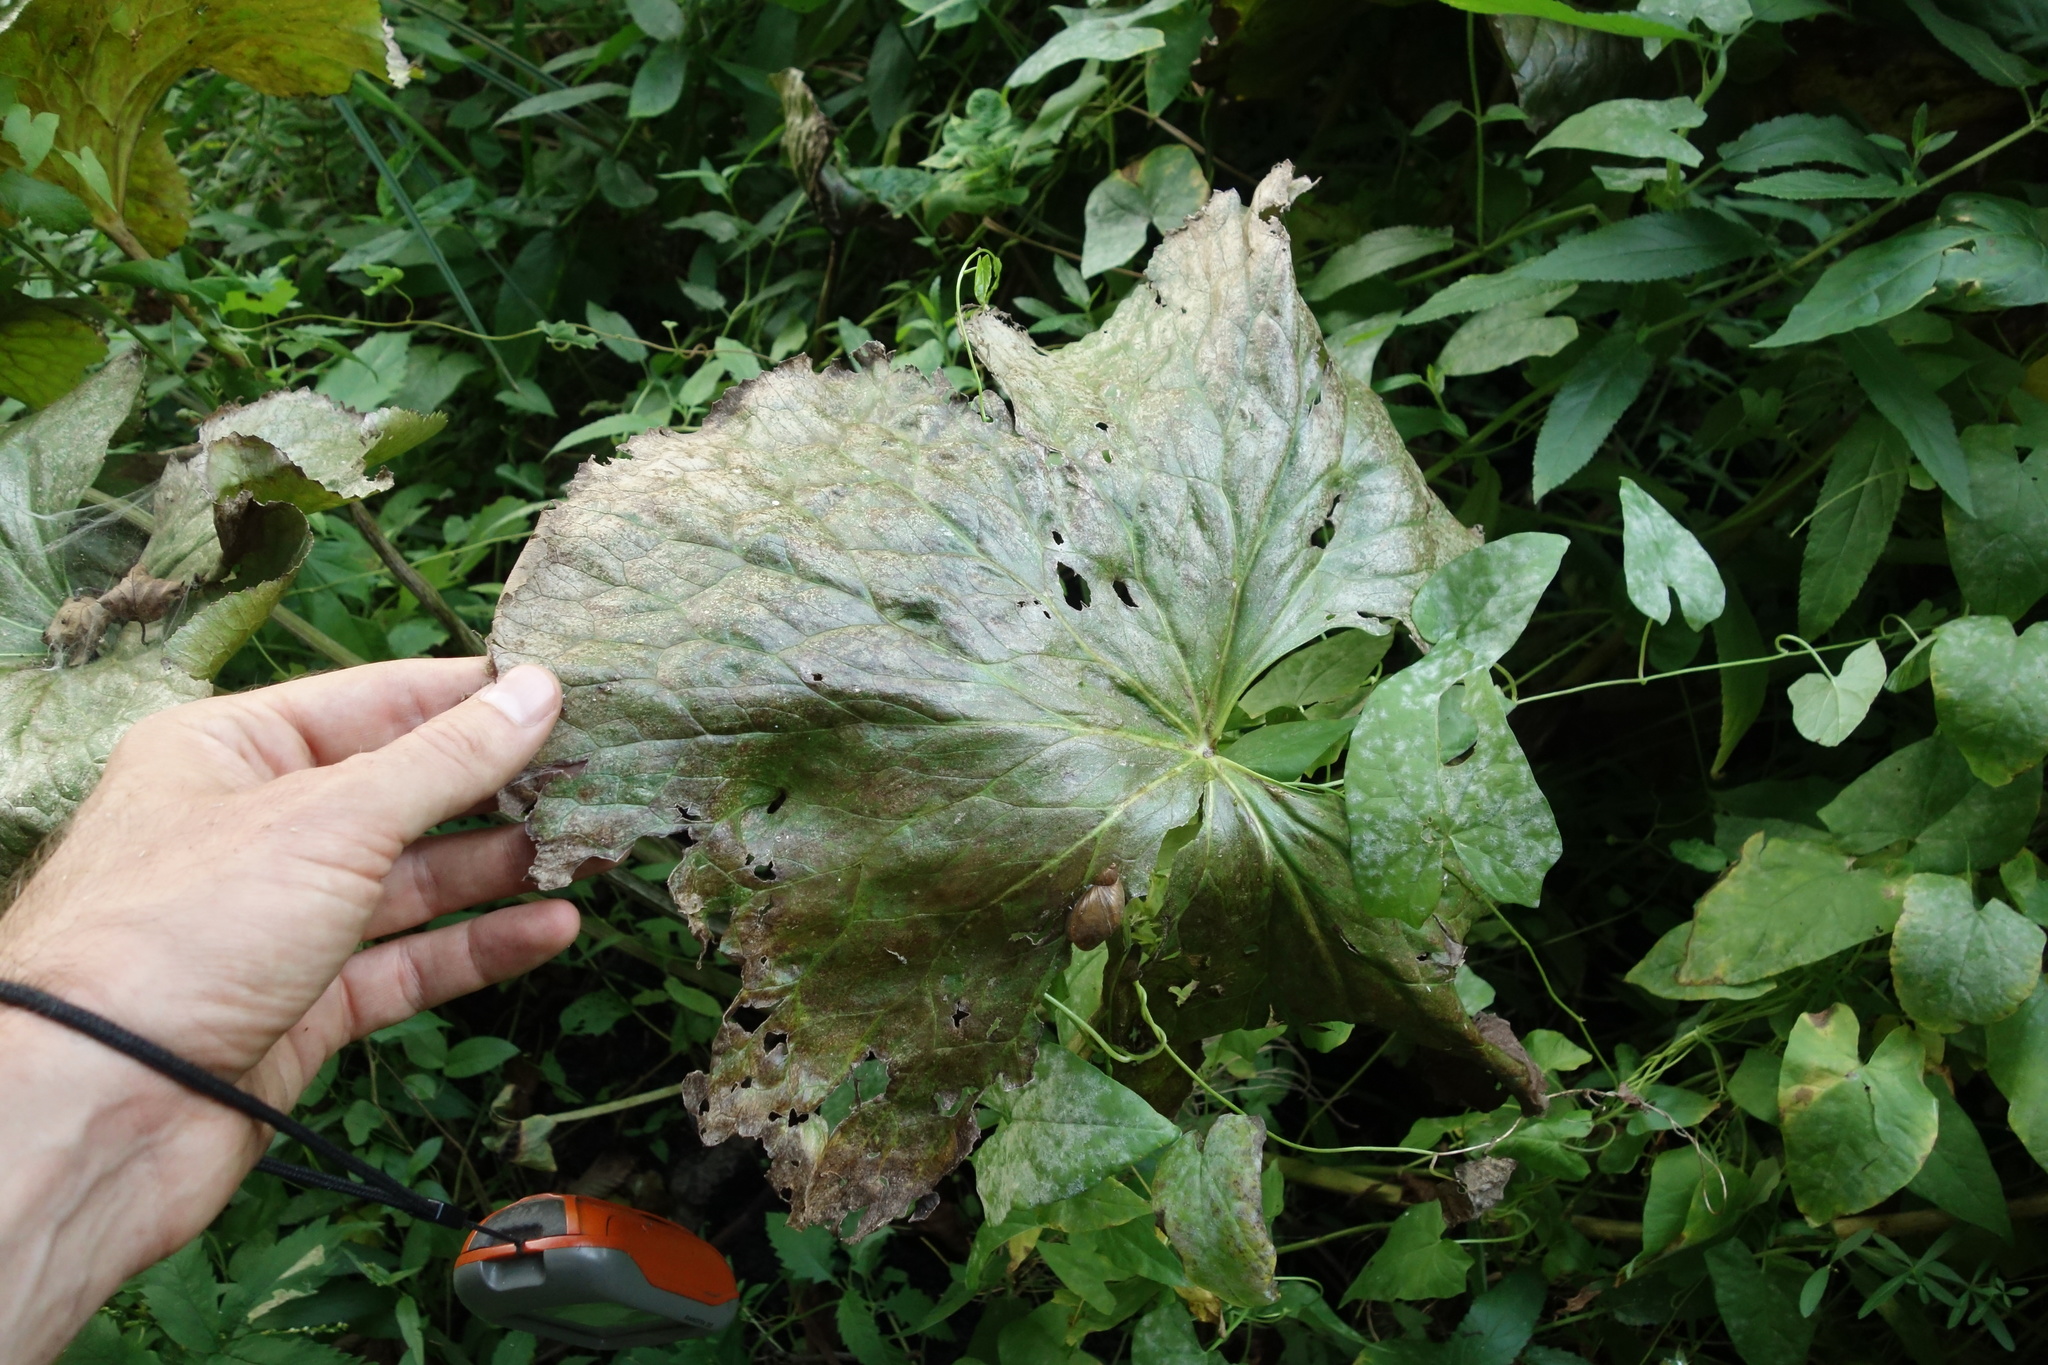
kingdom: Plantae
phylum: Tracheophyta
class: Magnoliopsida
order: Ranunculales
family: Ranunculaceae
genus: Caltha
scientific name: Caltha palustris
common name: Marsh marigold
